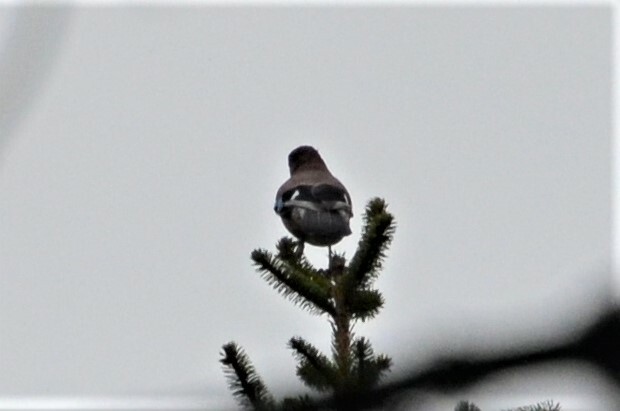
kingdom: Animalia
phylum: Chordata
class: Aves
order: Passeriformes
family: Corvidae
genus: Garrulus
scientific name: Garrulus glandarius
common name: Eurasian jay
